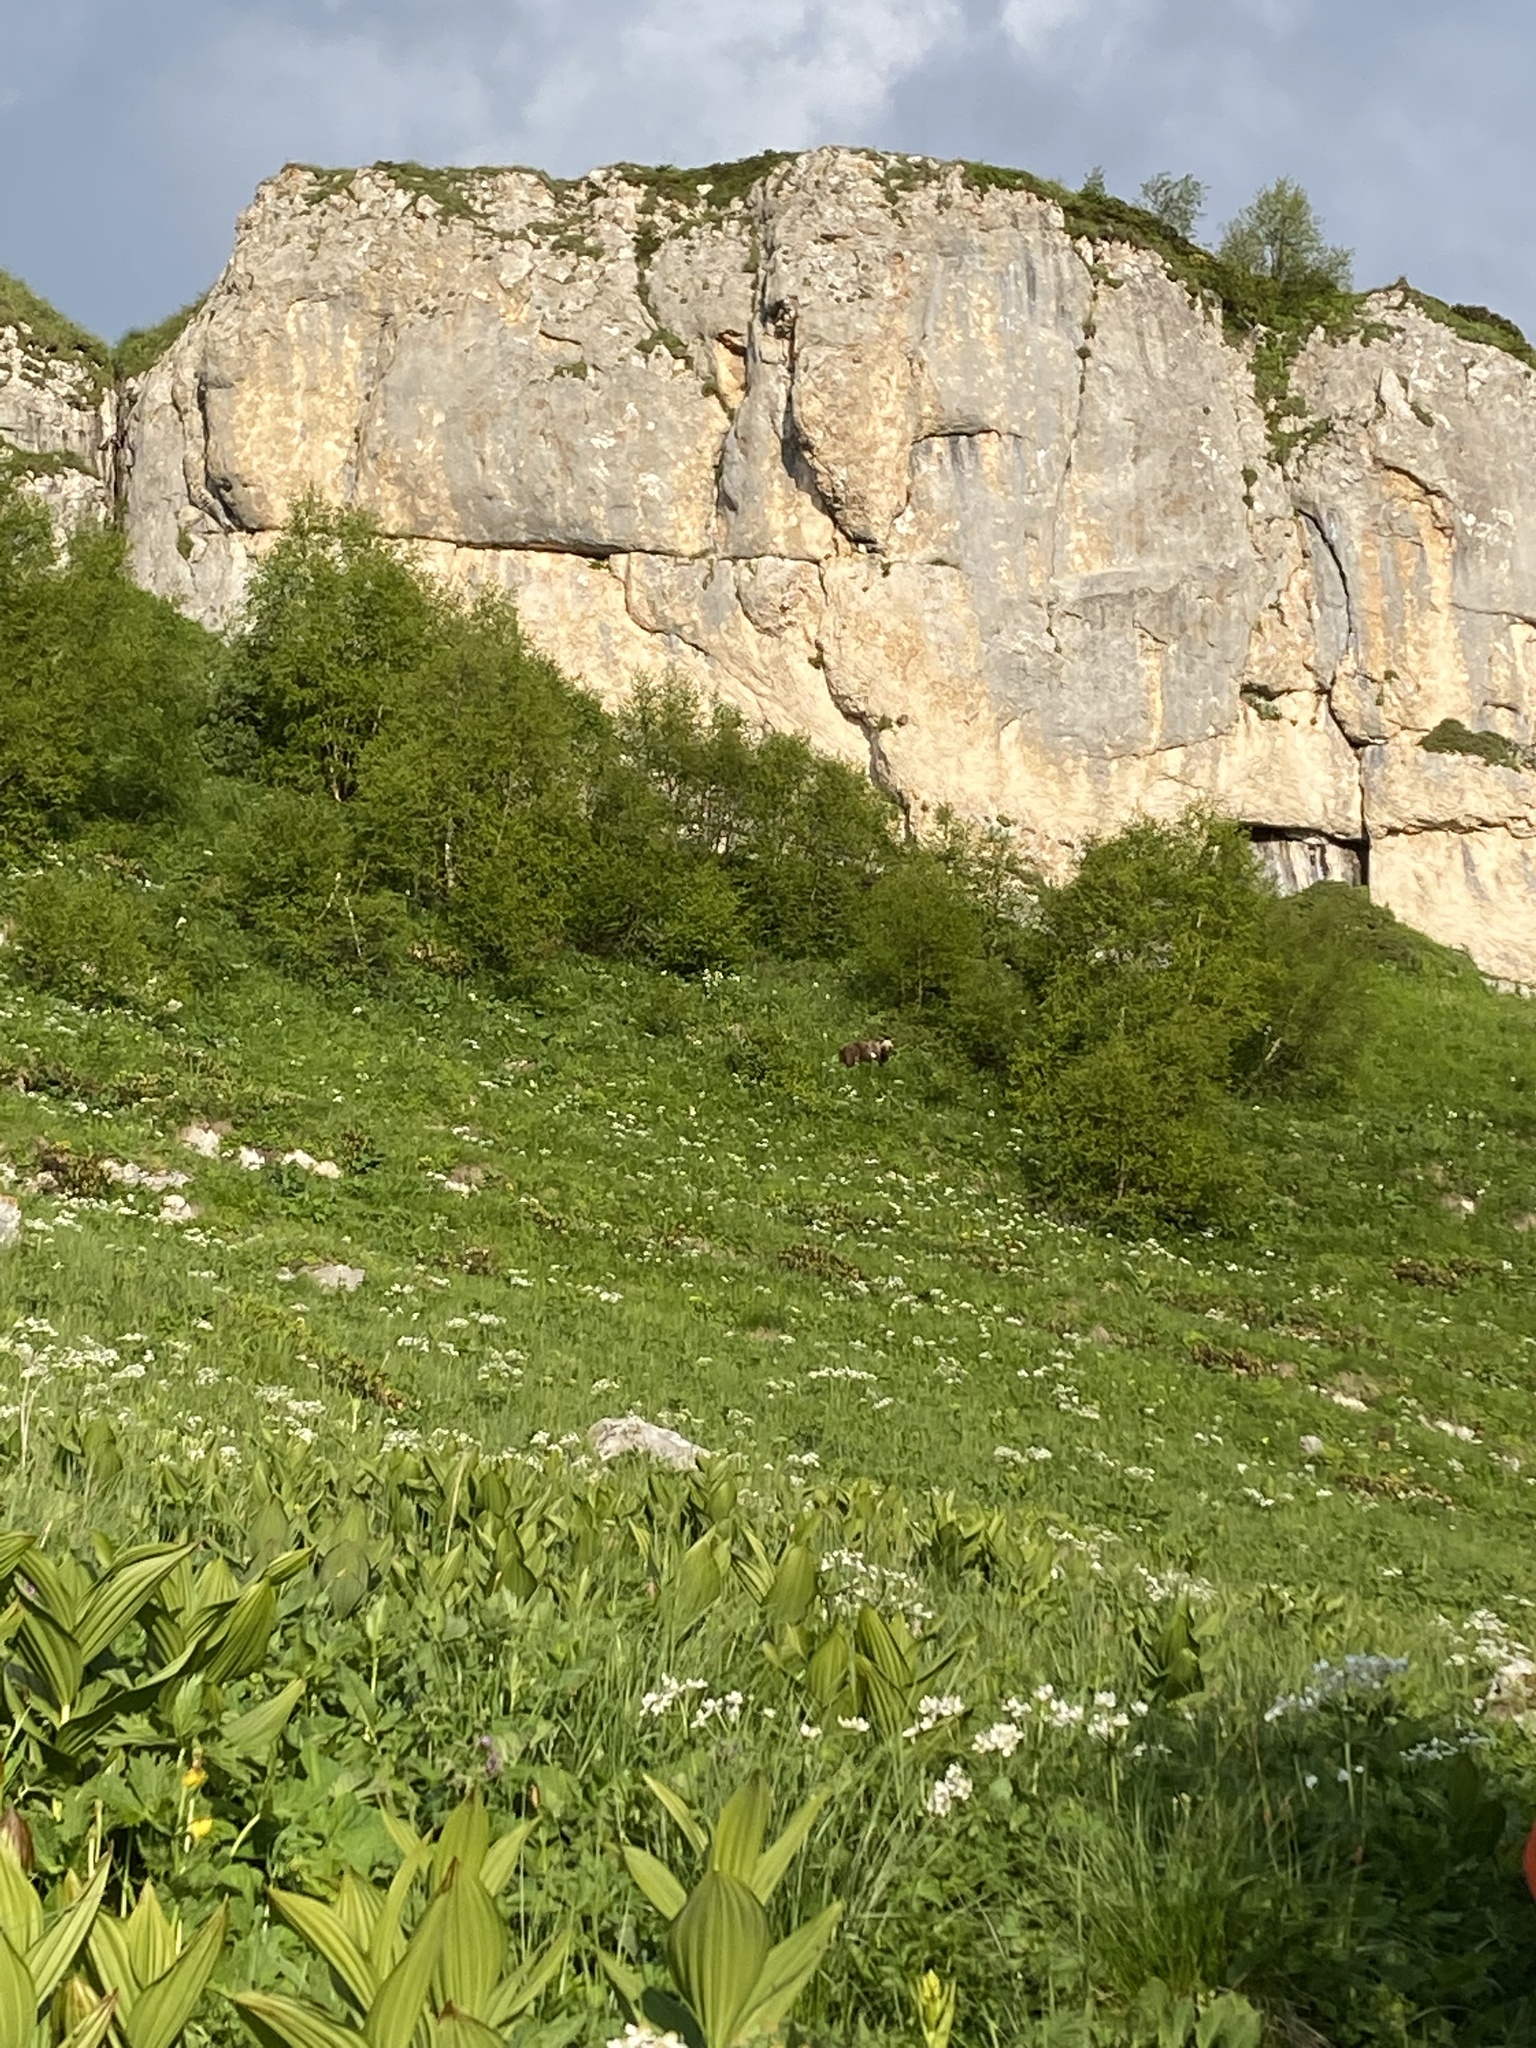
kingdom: Animalia
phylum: Chordata
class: Mammalia
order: Carnivora
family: Ursidae
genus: Ursus
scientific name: Ursus arctos
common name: Brown bear
